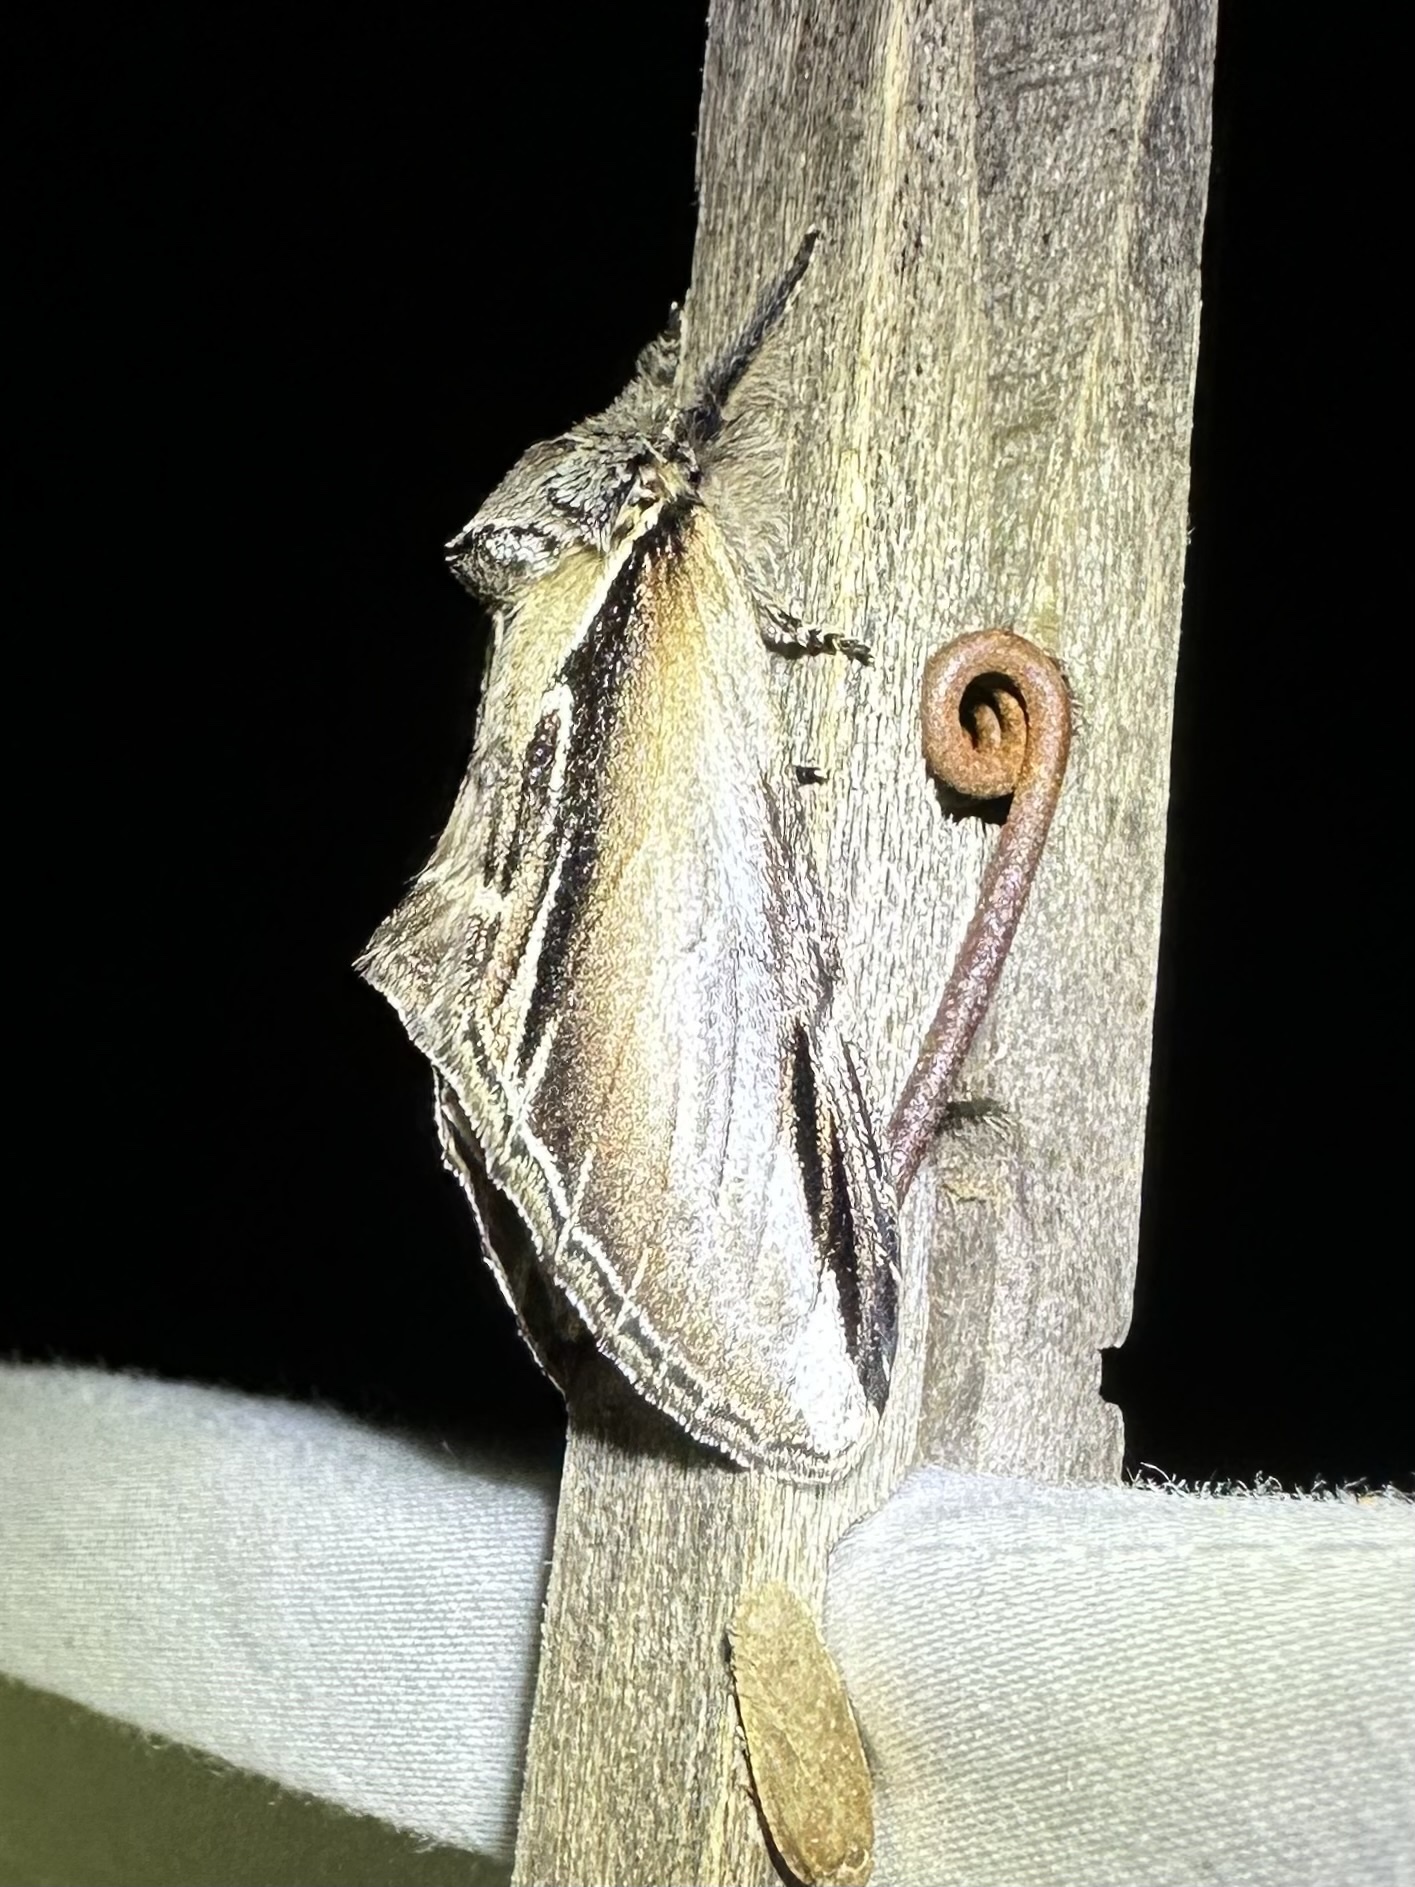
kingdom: Animalia
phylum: Arthropoda
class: Insecta
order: Lepidoptera
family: Notodontidae
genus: Pheosia
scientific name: Pheosia rimosa
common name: Black-rimmed prominent
